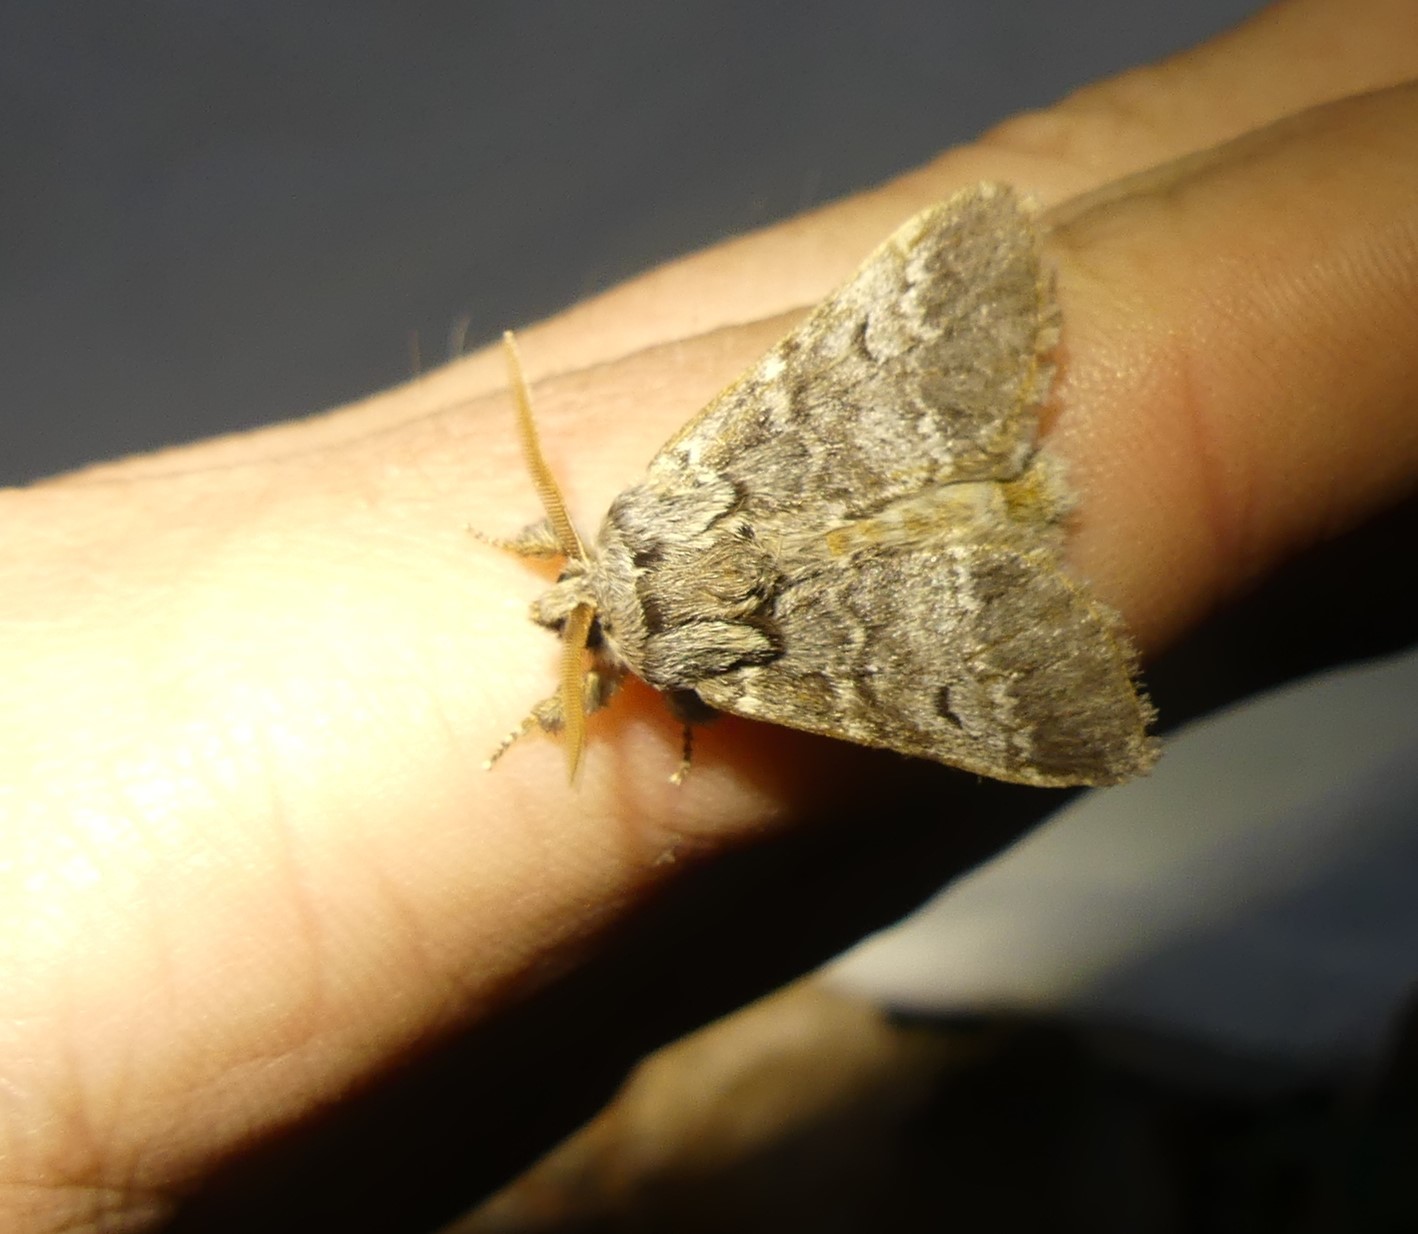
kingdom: Animalia
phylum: Arthropoda
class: Insecta
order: Lepidoptera
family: Notodontidae
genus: Drymonia
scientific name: Drymonia ruficornis
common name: Lunar marbled brown
